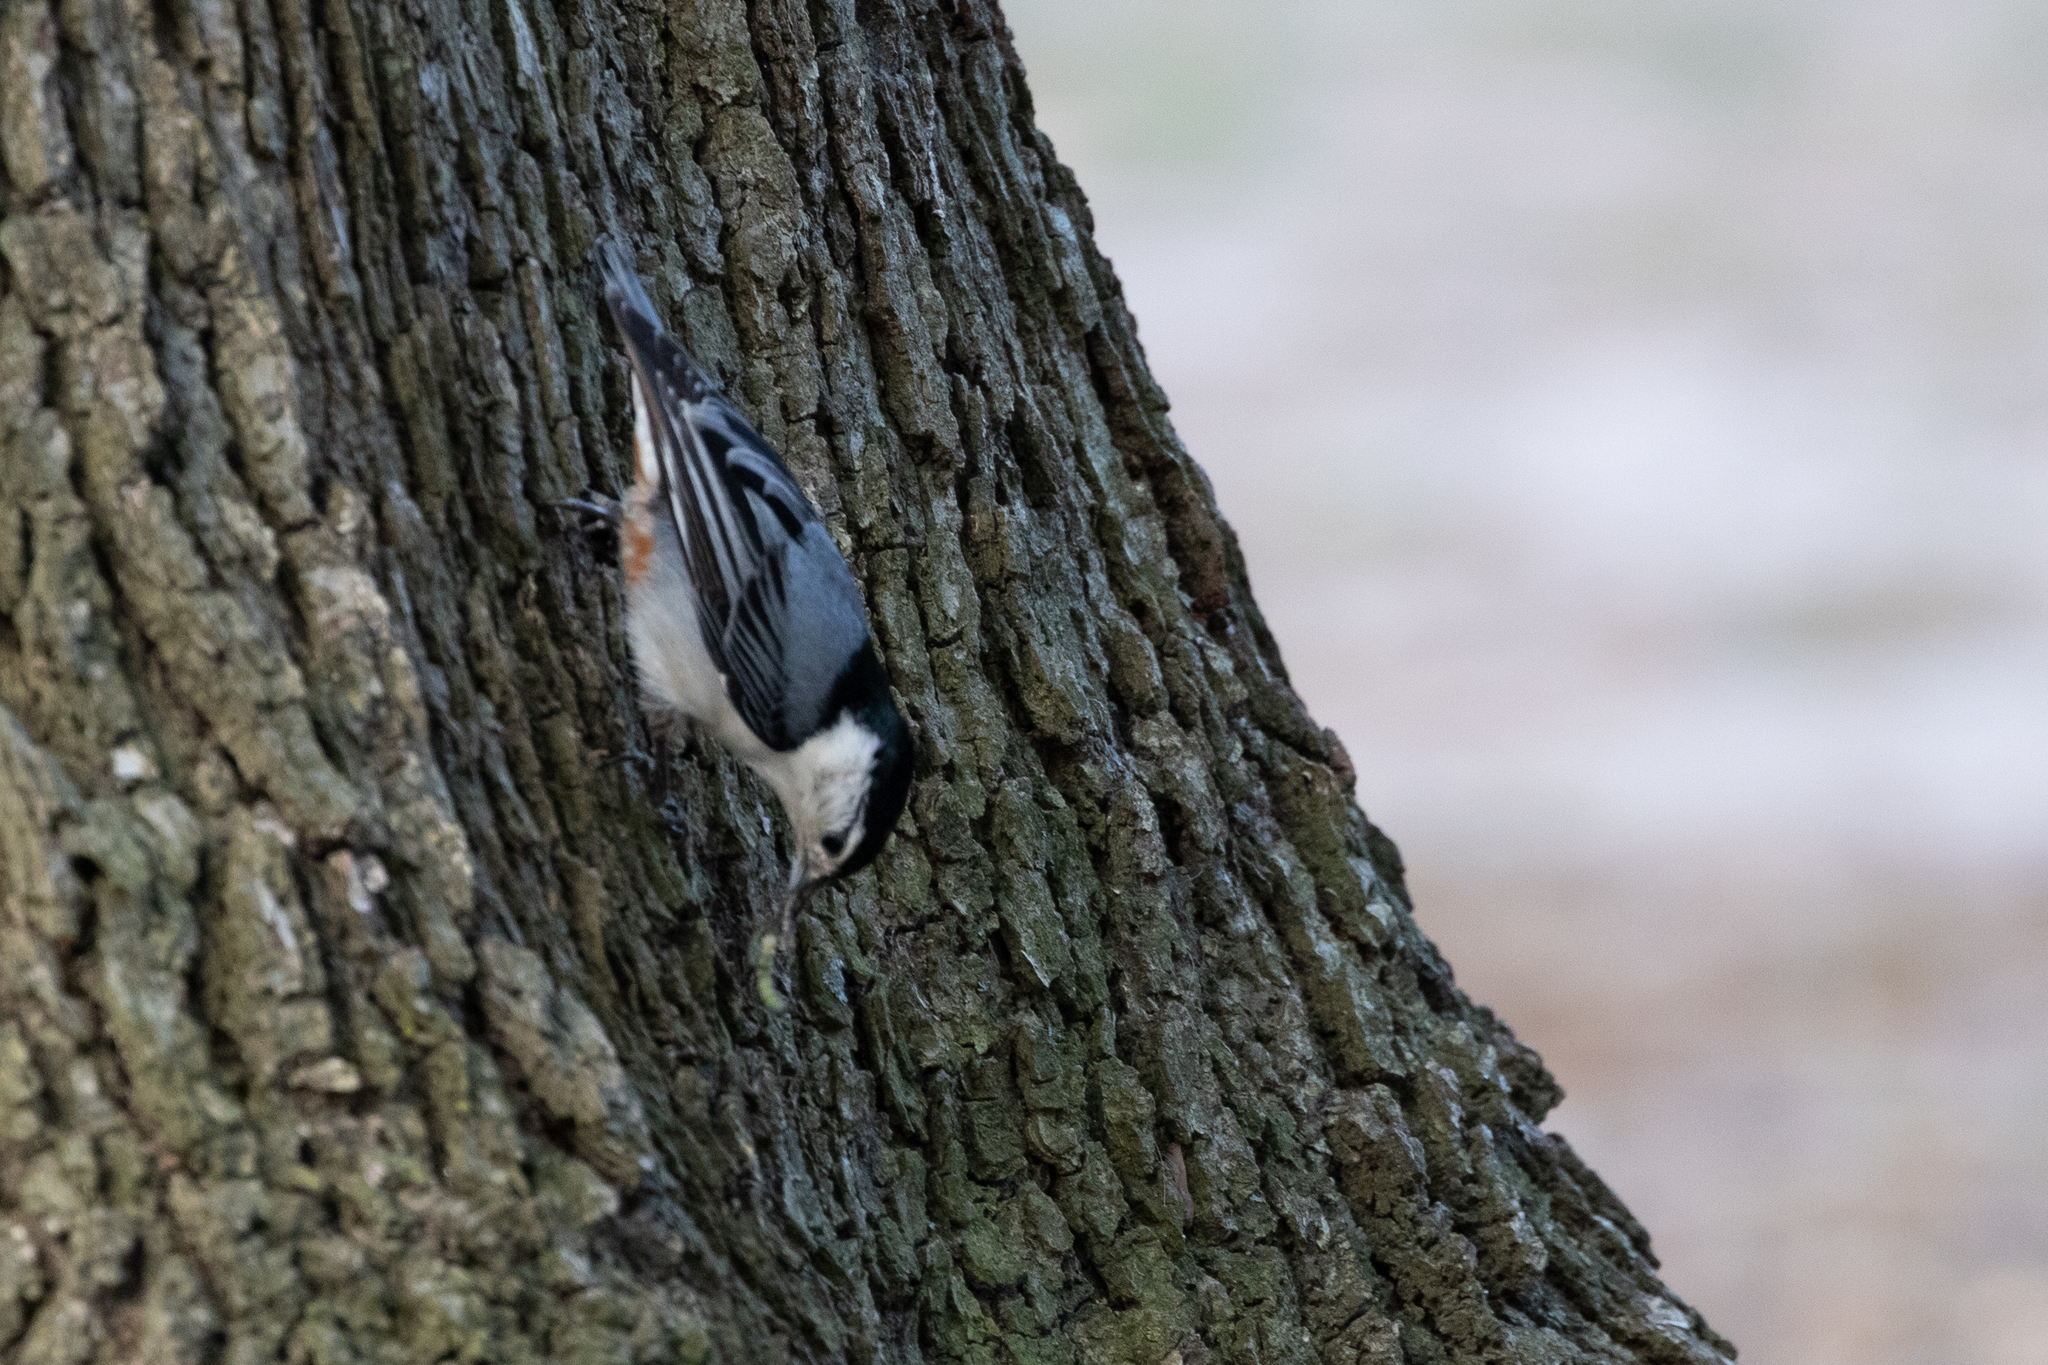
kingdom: Animalia
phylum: Chordata
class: Aves
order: Passeriformes
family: Sittidae
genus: Sitta
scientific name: Sitta carolinensis
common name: White-breasted nuthatch
